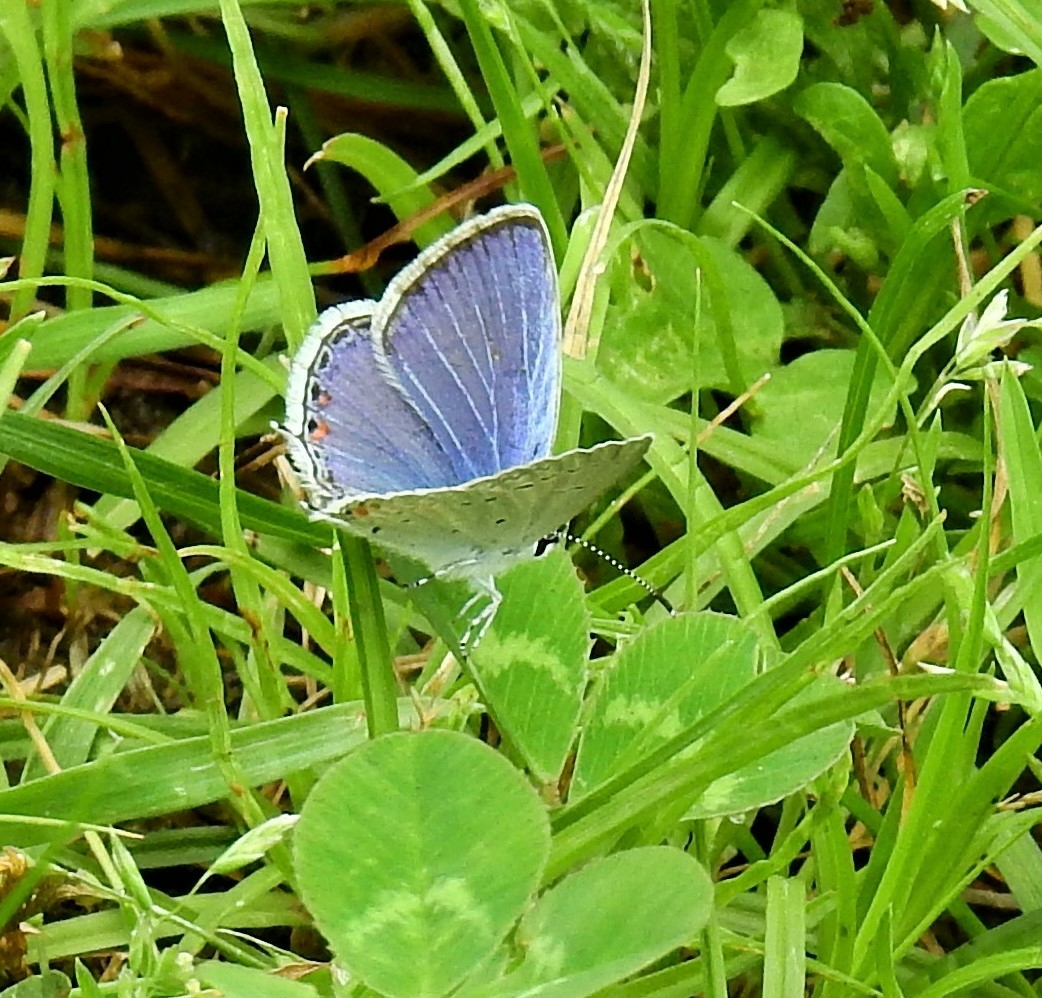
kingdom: Animalia
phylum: Arthropoda
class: Insecta
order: Lepidoptera
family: Lycaenidae
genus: Elkalyce
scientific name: Elkalyce comyntas
